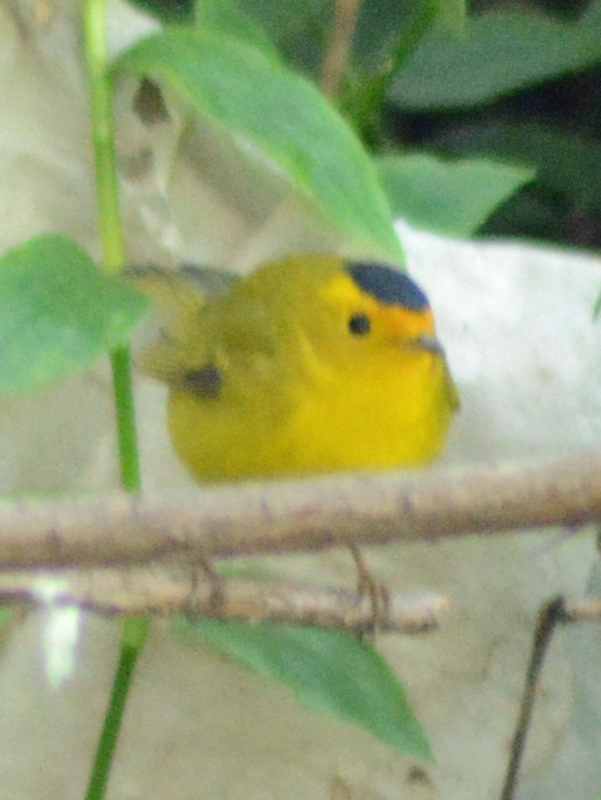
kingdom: Animalia
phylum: Chordata
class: Aves
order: Passeriformes
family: Parulidae
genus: Cardellina
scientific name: Cardellina pusilla
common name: Wilson's warbler
